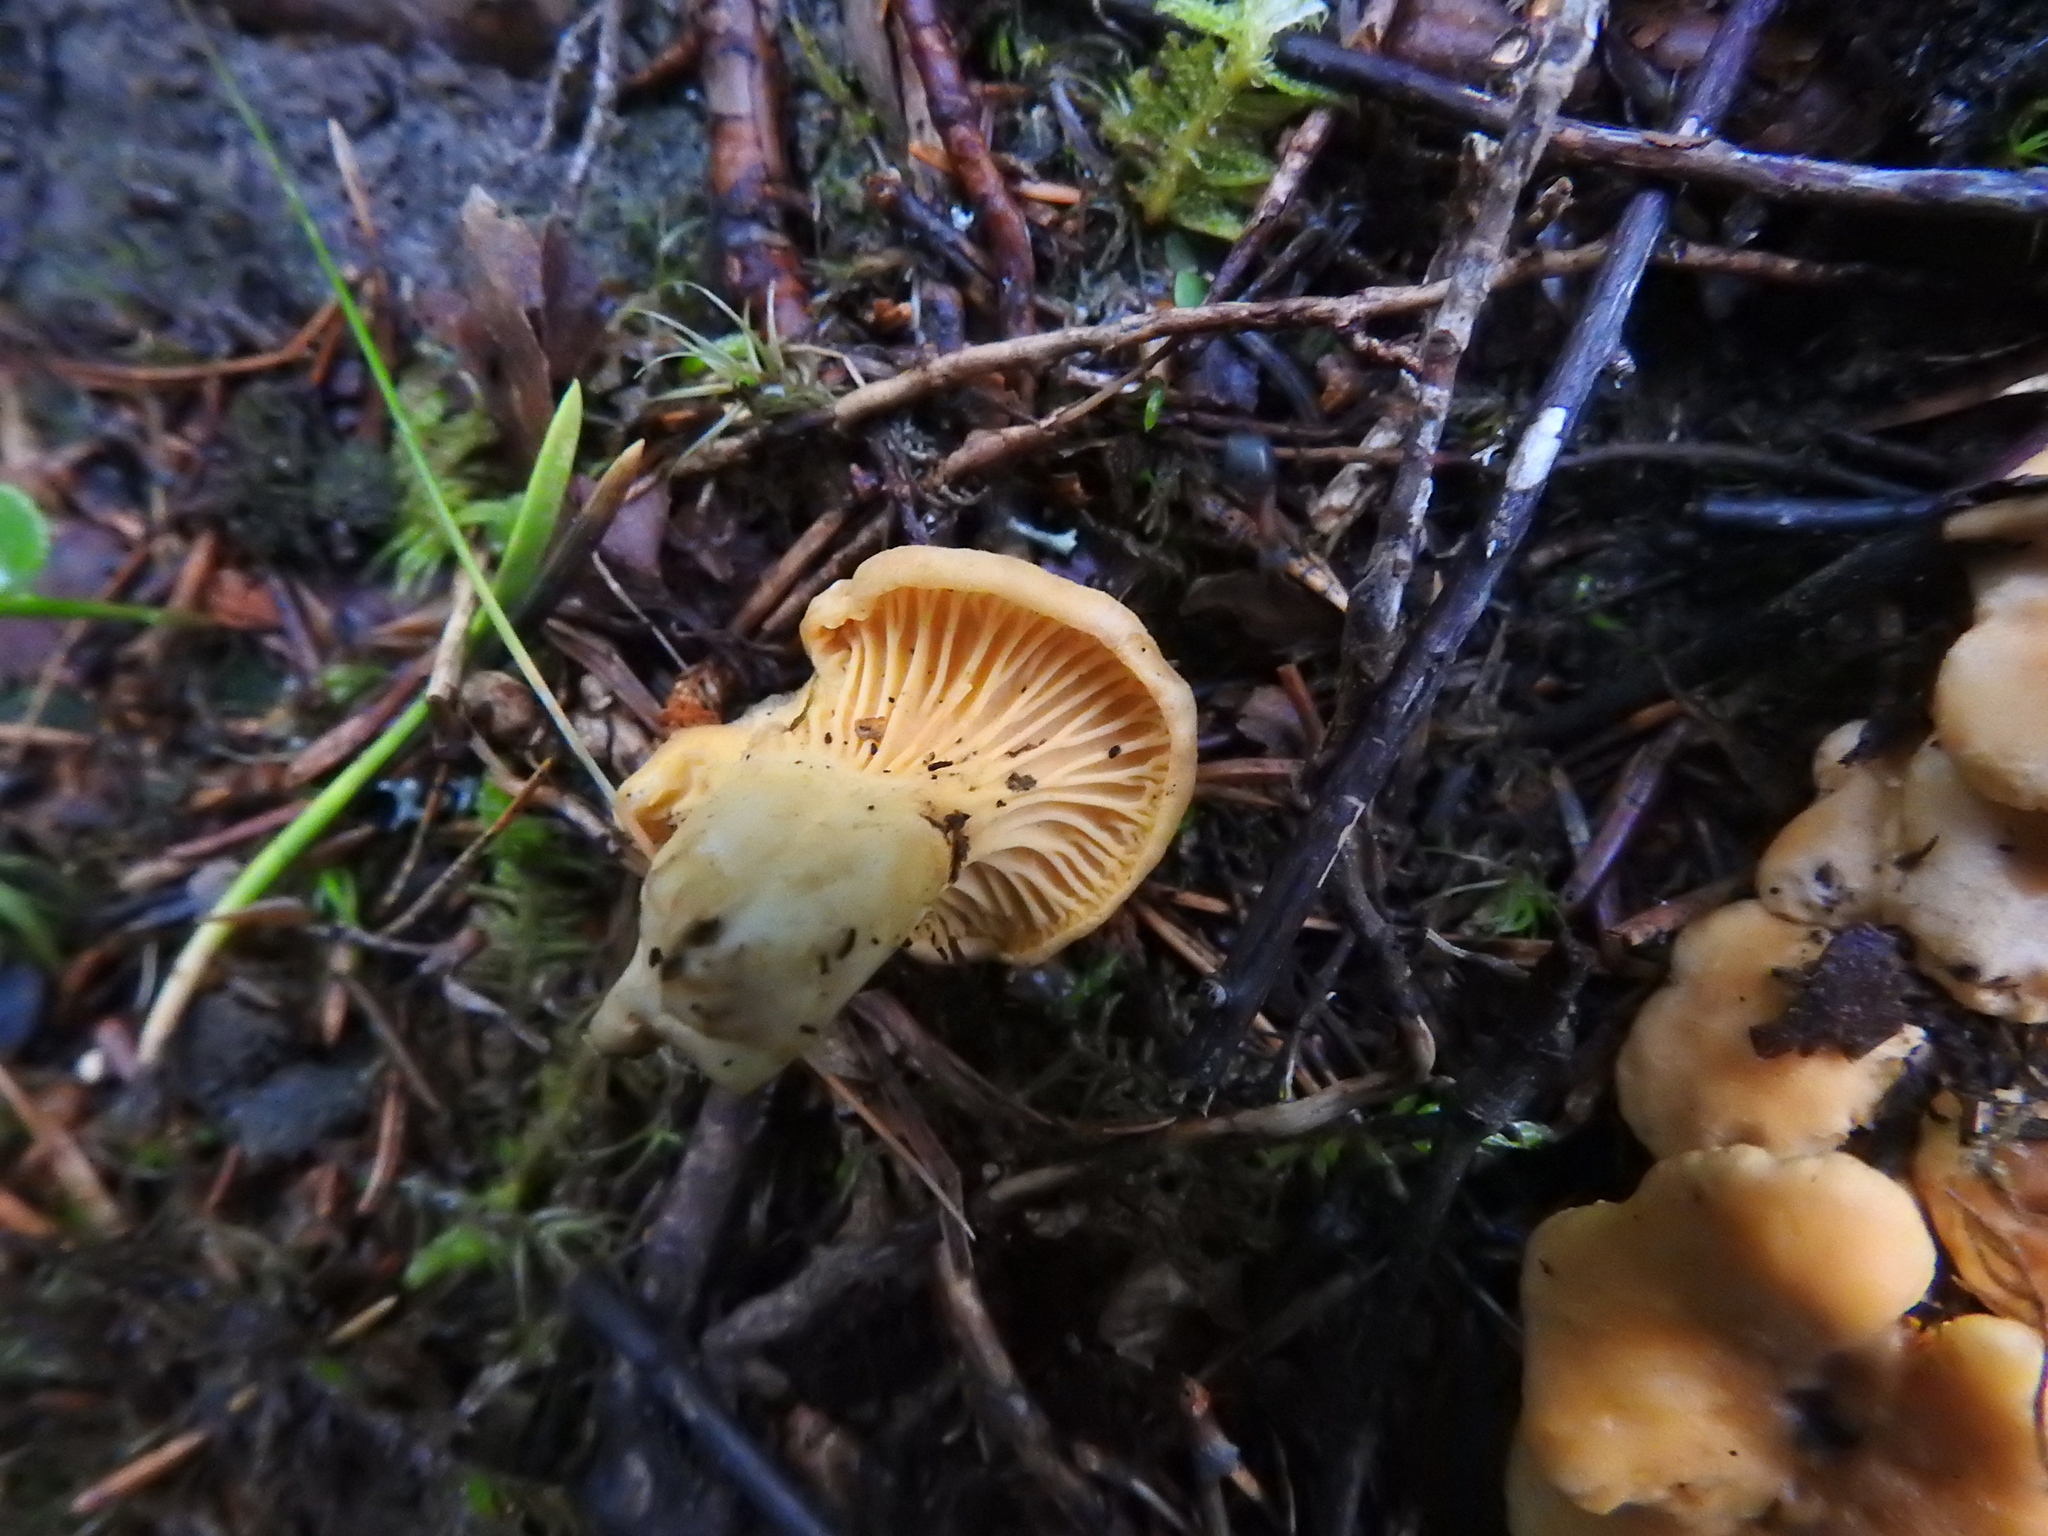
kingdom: Fungi
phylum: Basidiomycota
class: Agaricomycetes
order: Cantharellales
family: Hydnaceae
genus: Cantharellus
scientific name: Cantharellus cibarius
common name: Chanterelle
